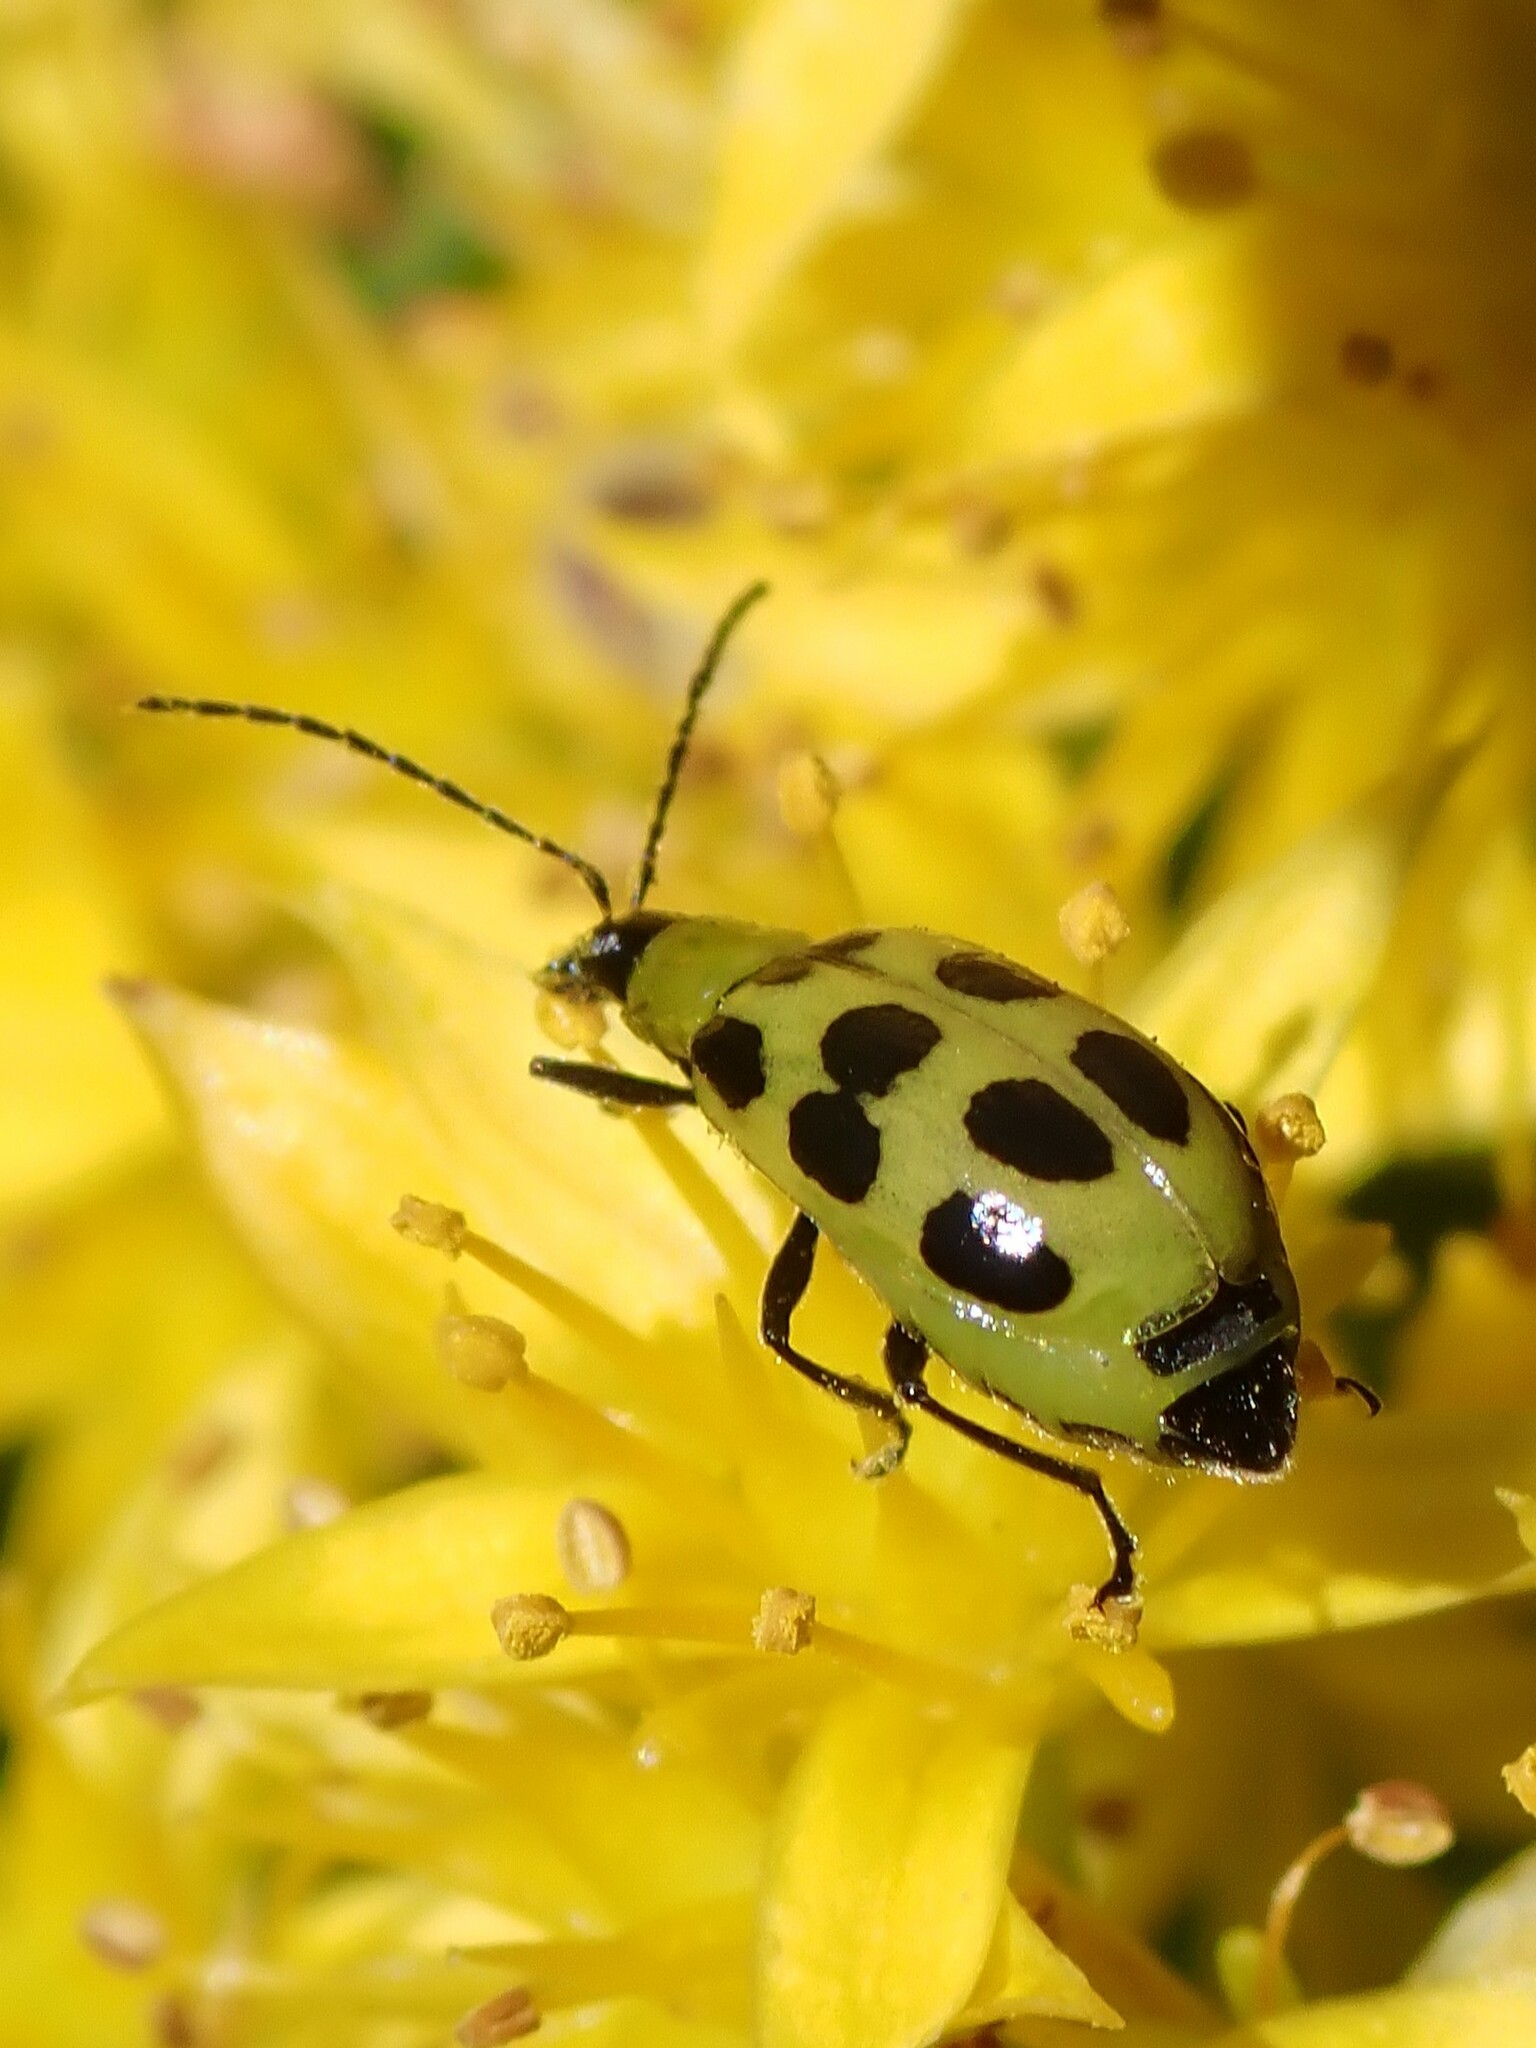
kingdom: Animalia
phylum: Arthropoda
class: Insecta
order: Coleoptera
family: Chrysomelidae
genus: Diabrotica
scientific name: Diabrotica undecimpunctata
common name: Spotted cucumber beetle
